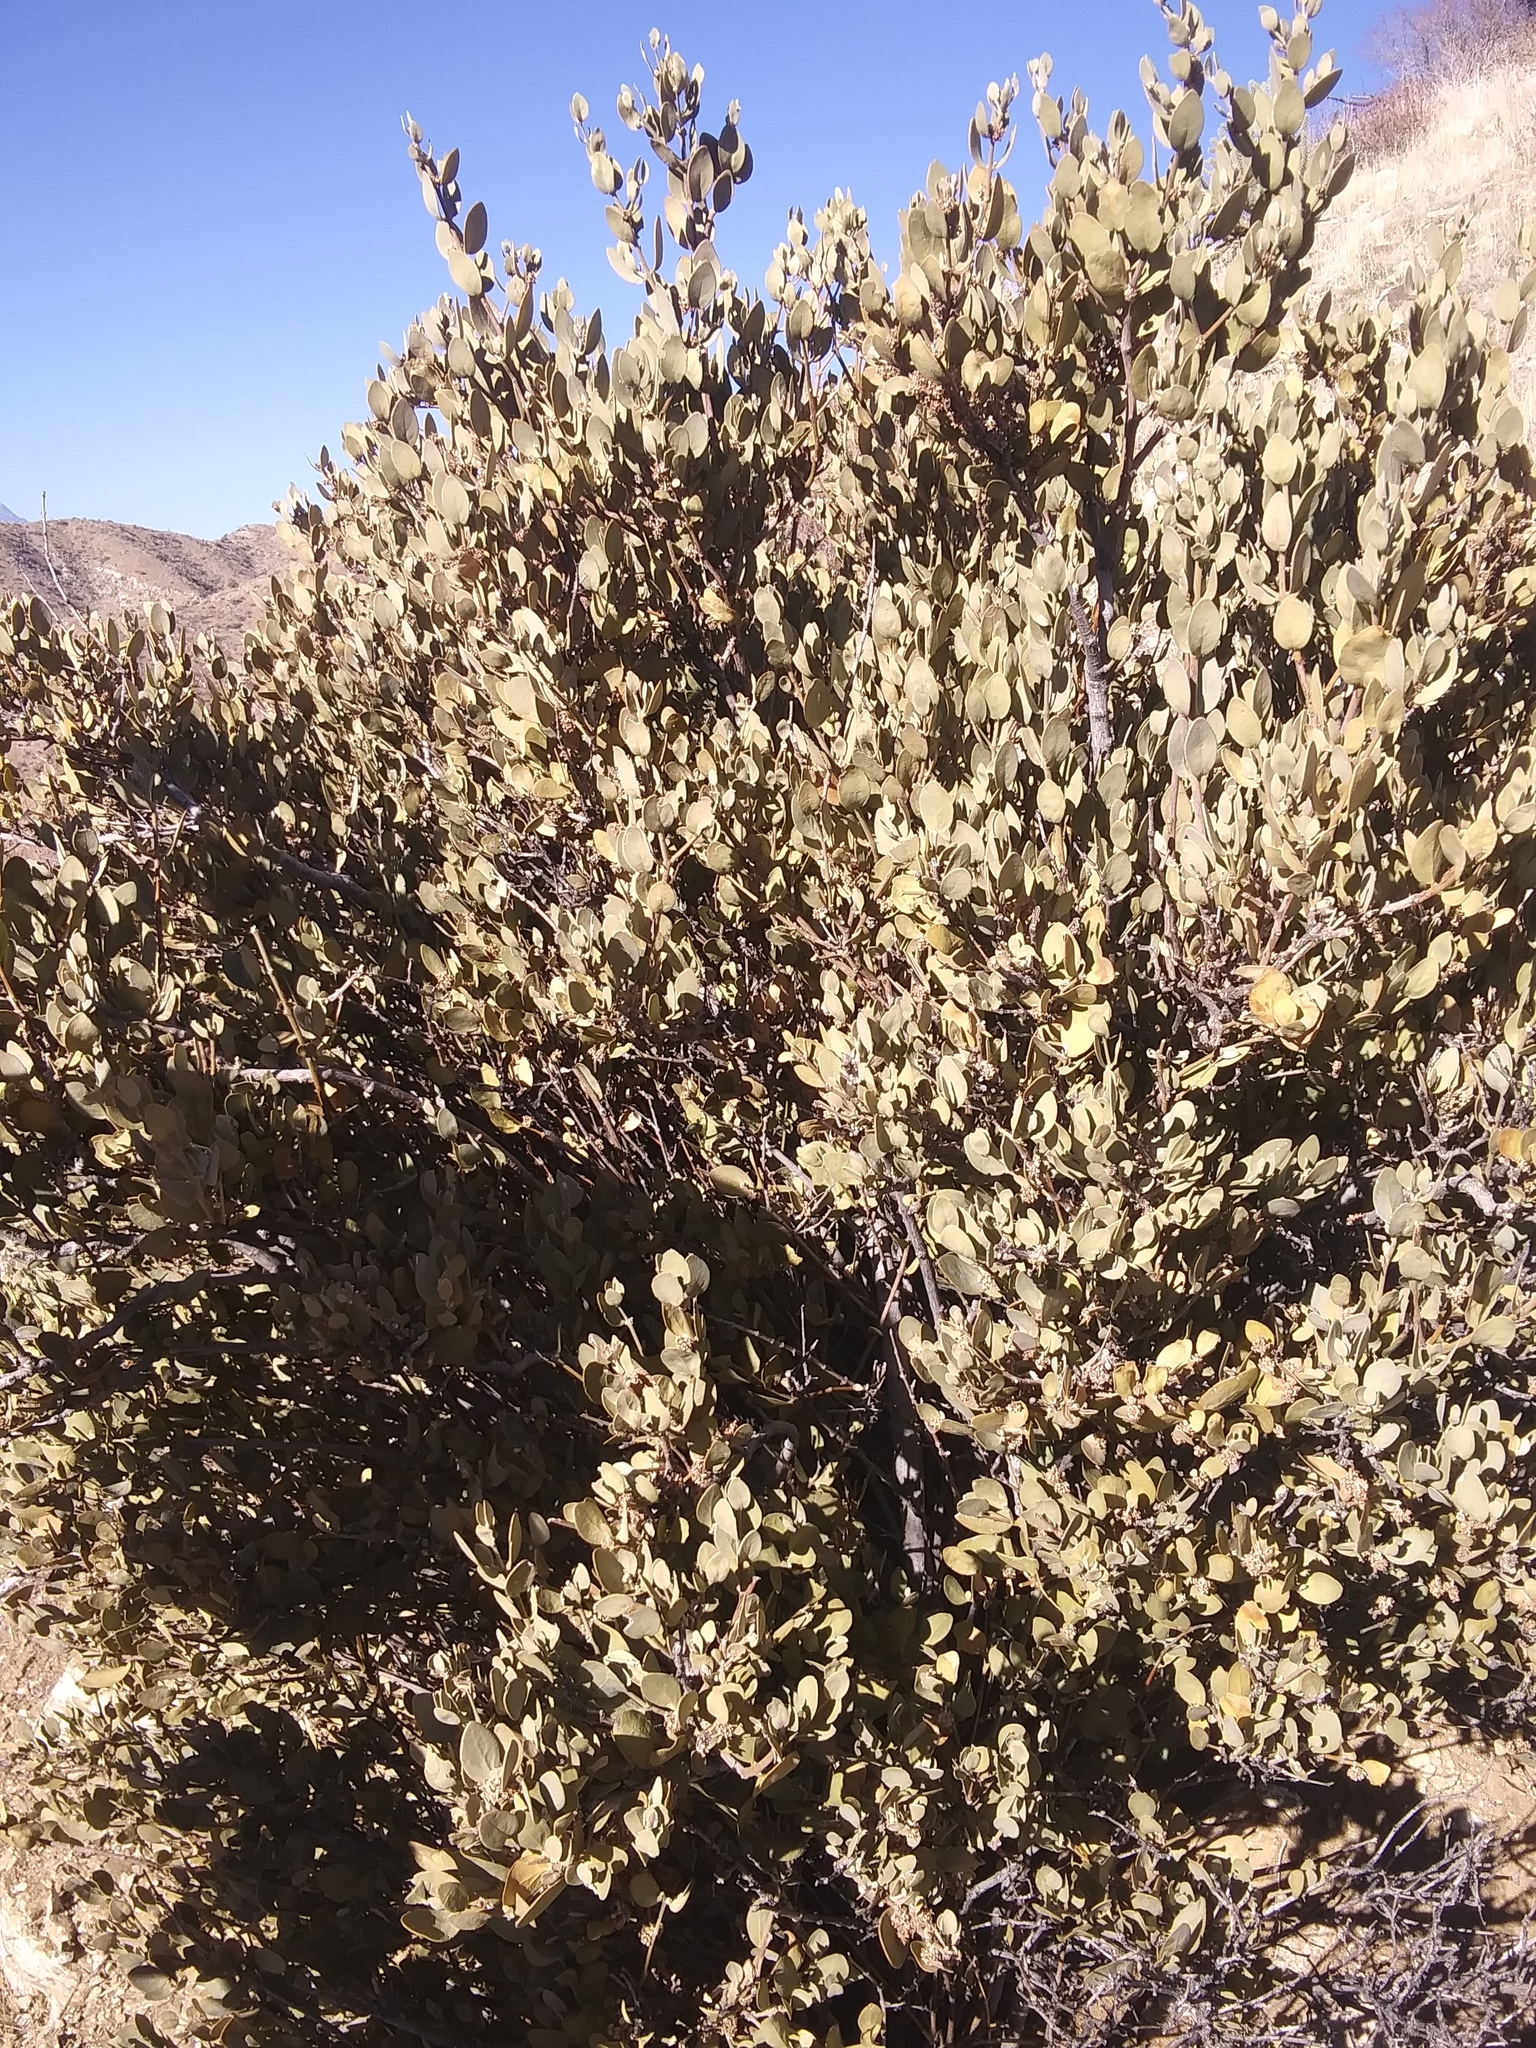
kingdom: Plantae
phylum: Tracheophyta
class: Magnoliopsida
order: Caryophyllales
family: Simmondsiaceae
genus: Simmondsia
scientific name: Simmondsia chinensis
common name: Jojoba
